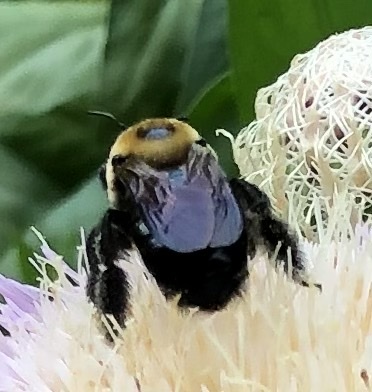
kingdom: Animalia
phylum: Arthropoda
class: Insecta
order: Hymenoptera
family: Apidae
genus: Xylocopa
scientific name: Xylocopa virginica
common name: Carpenter bee
